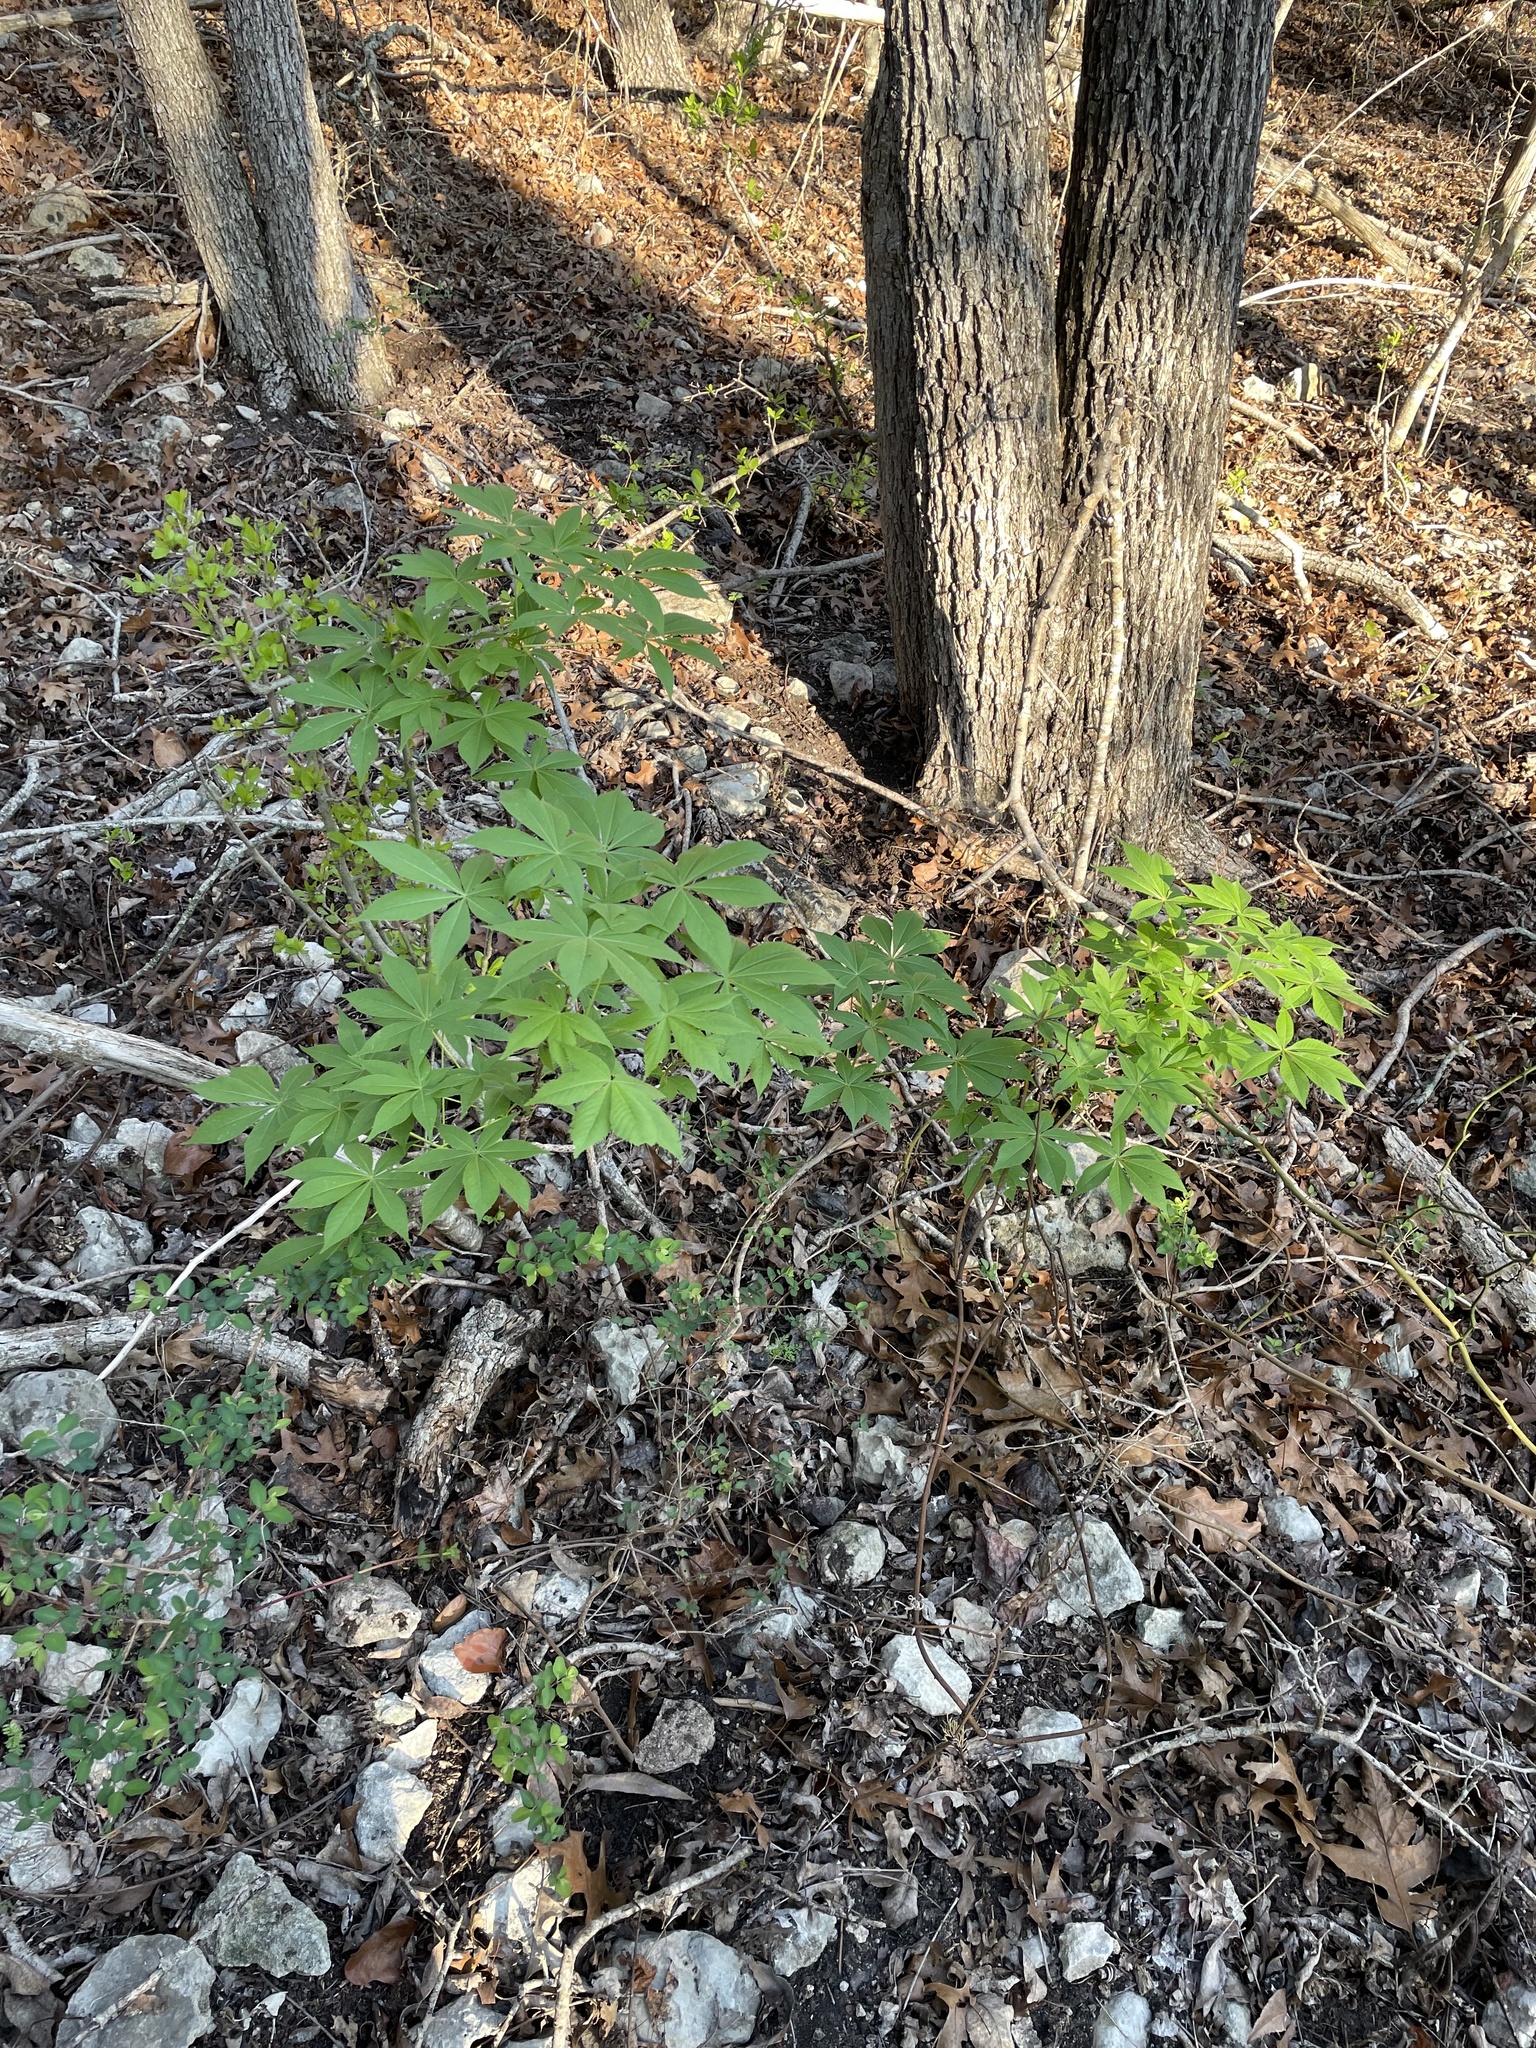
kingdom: Plantae
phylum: Tracheophyta
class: Magnoliopsida
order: Sapindales
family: Sapindaceae
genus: Aesculus
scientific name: Aesculus glabra
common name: Ohio buckeye
